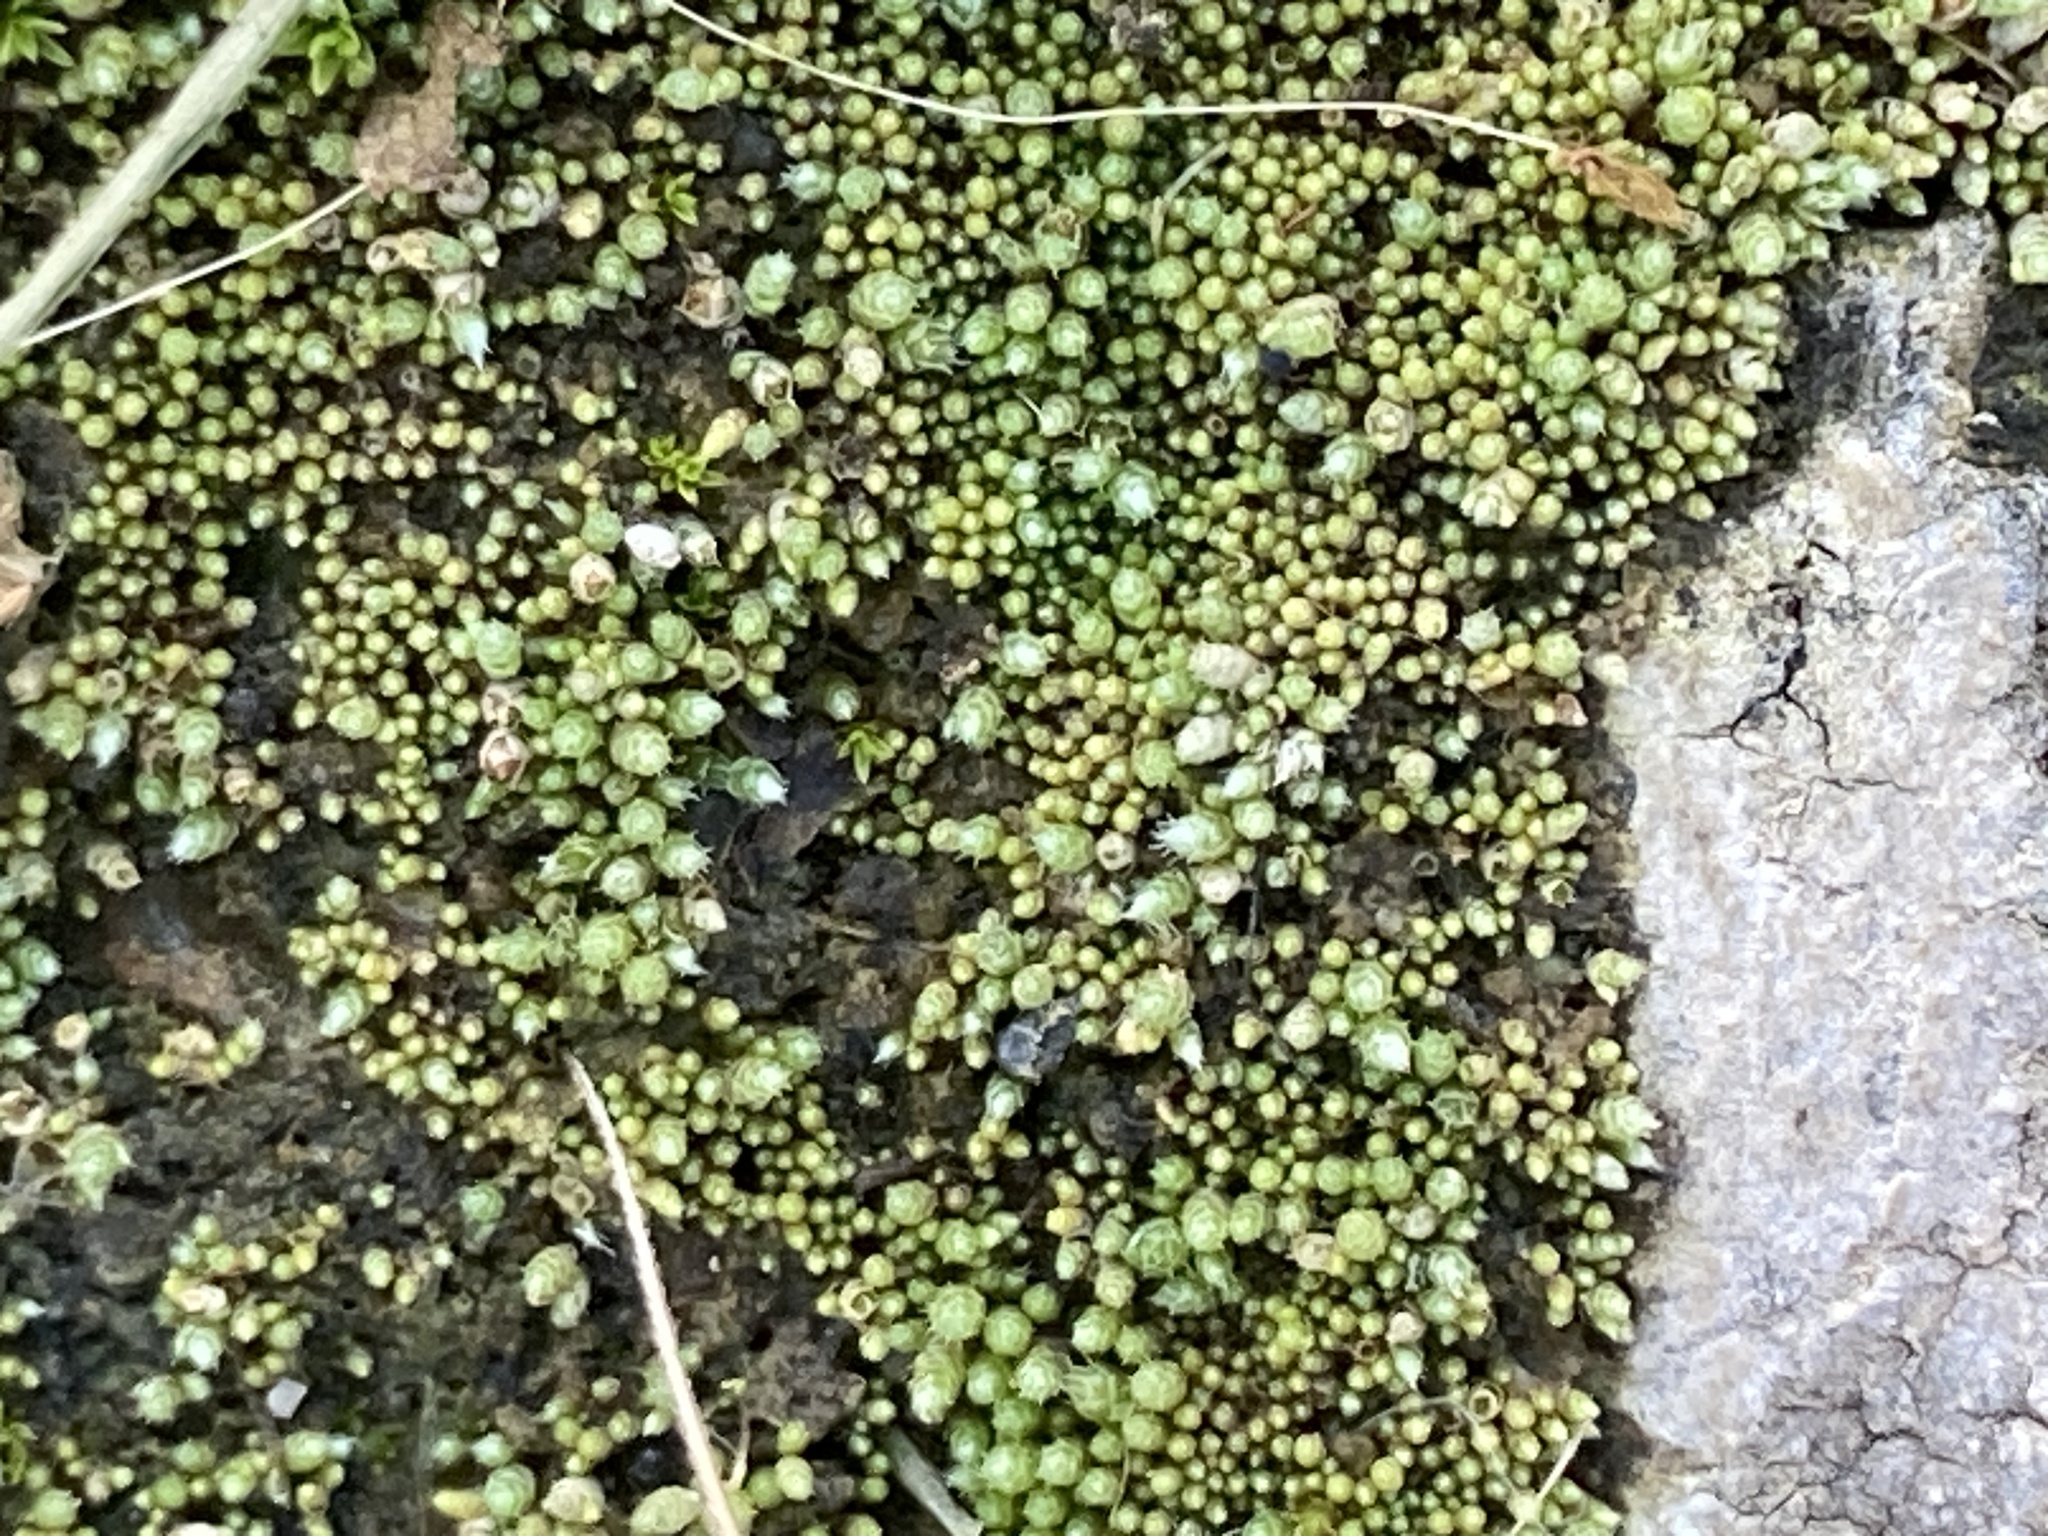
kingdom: Plantae
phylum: Bryophyta
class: Bryopsida
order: Bryales
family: Bryaceae
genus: Bryum
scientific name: Bryum argenteum
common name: Silver-moss
